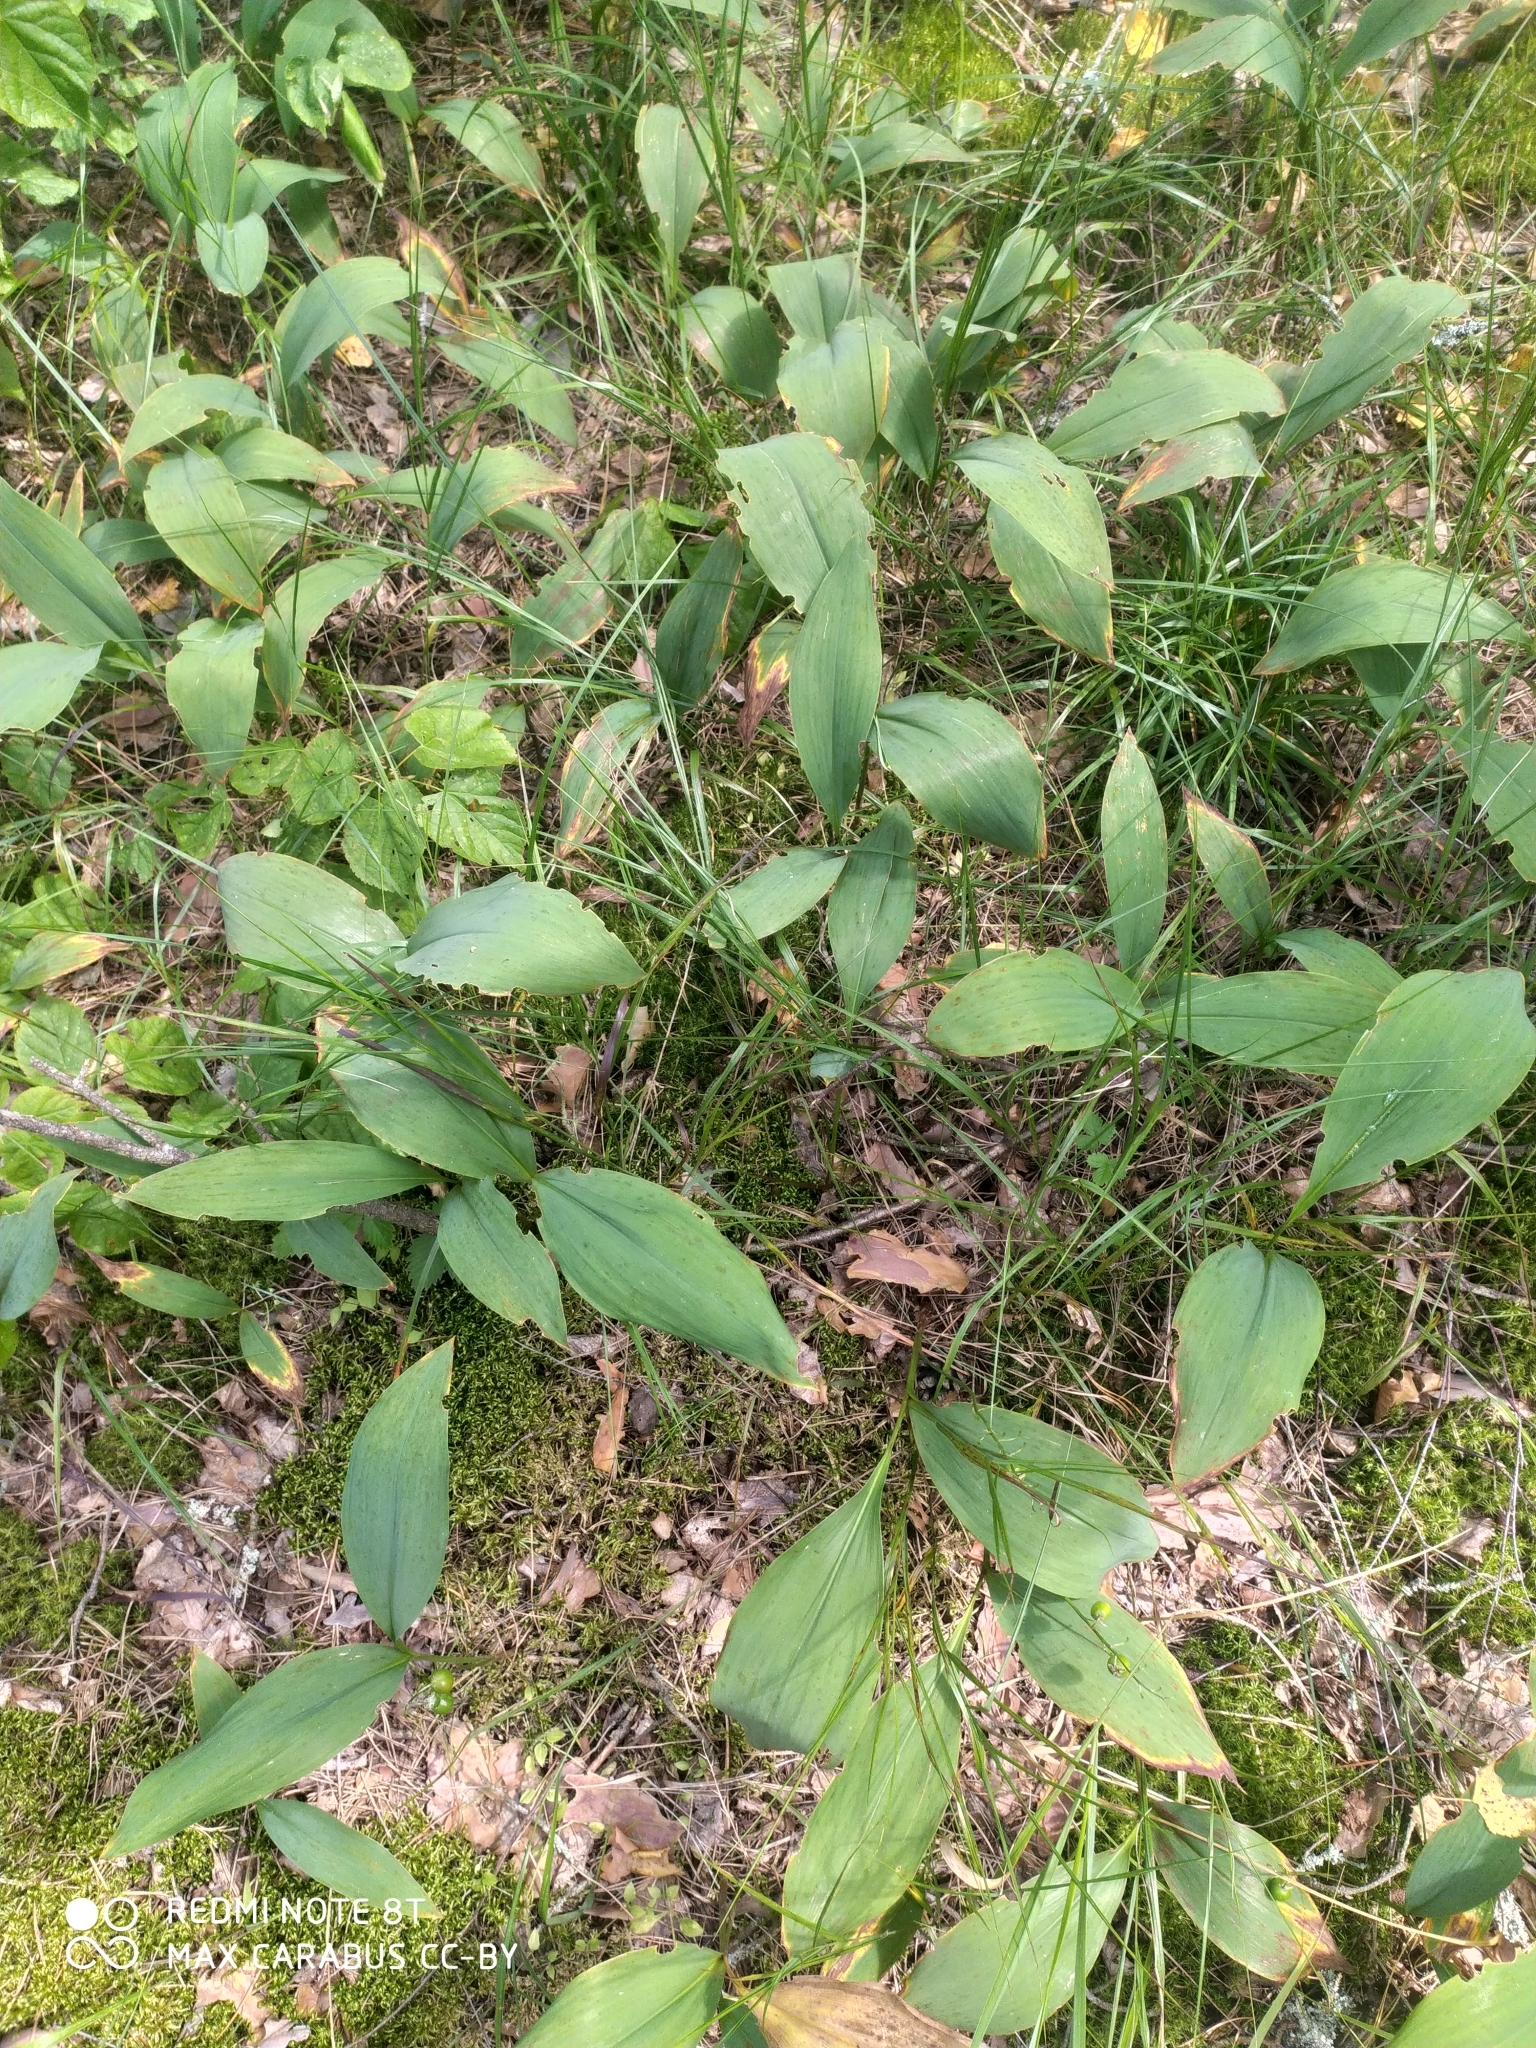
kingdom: Plantae
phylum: Tracheophyta
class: Liliopsida
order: Asparagales
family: Asparagaceae
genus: Convallaria
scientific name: Convallaria majalis
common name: Lily-of-the-valley
